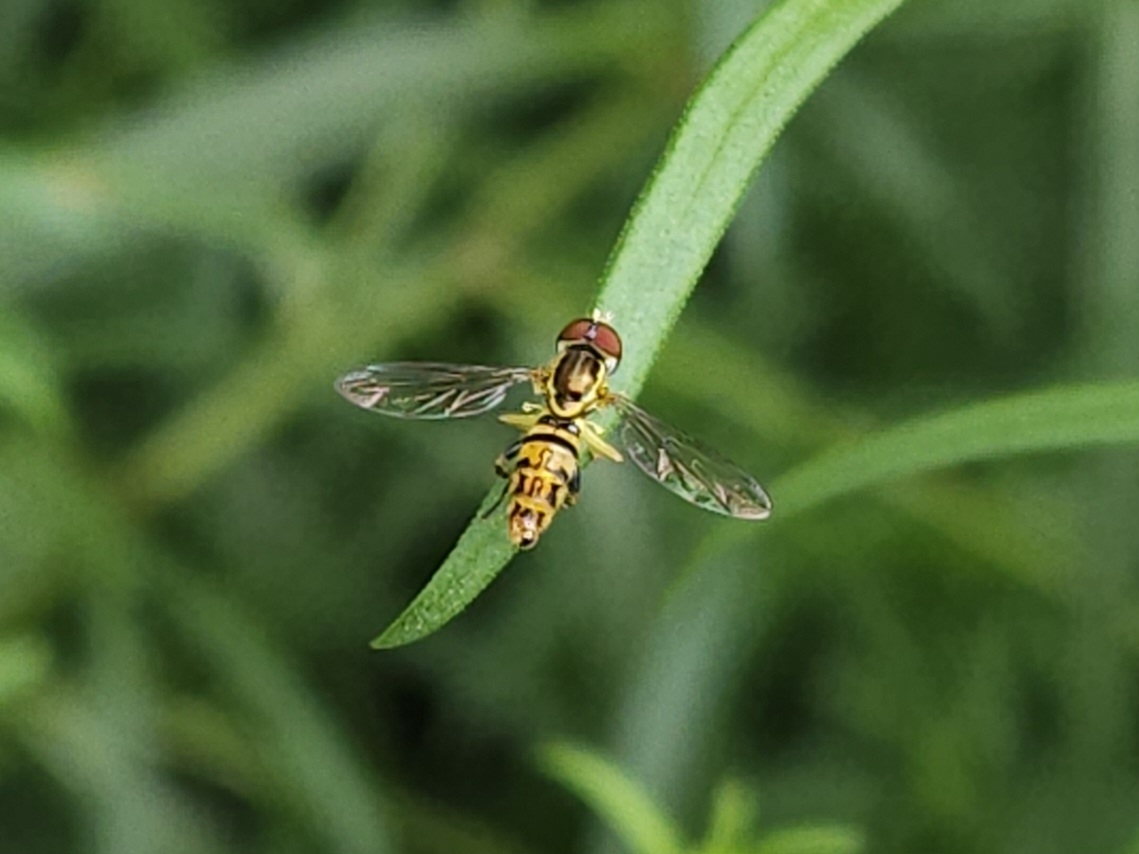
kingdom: Animalia
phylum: Arthropoda
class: Insecta
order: Diptera
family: Syrphidae
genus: Toxomerus
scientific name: Toxomerus geminatus
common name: Eastern calligrapher
